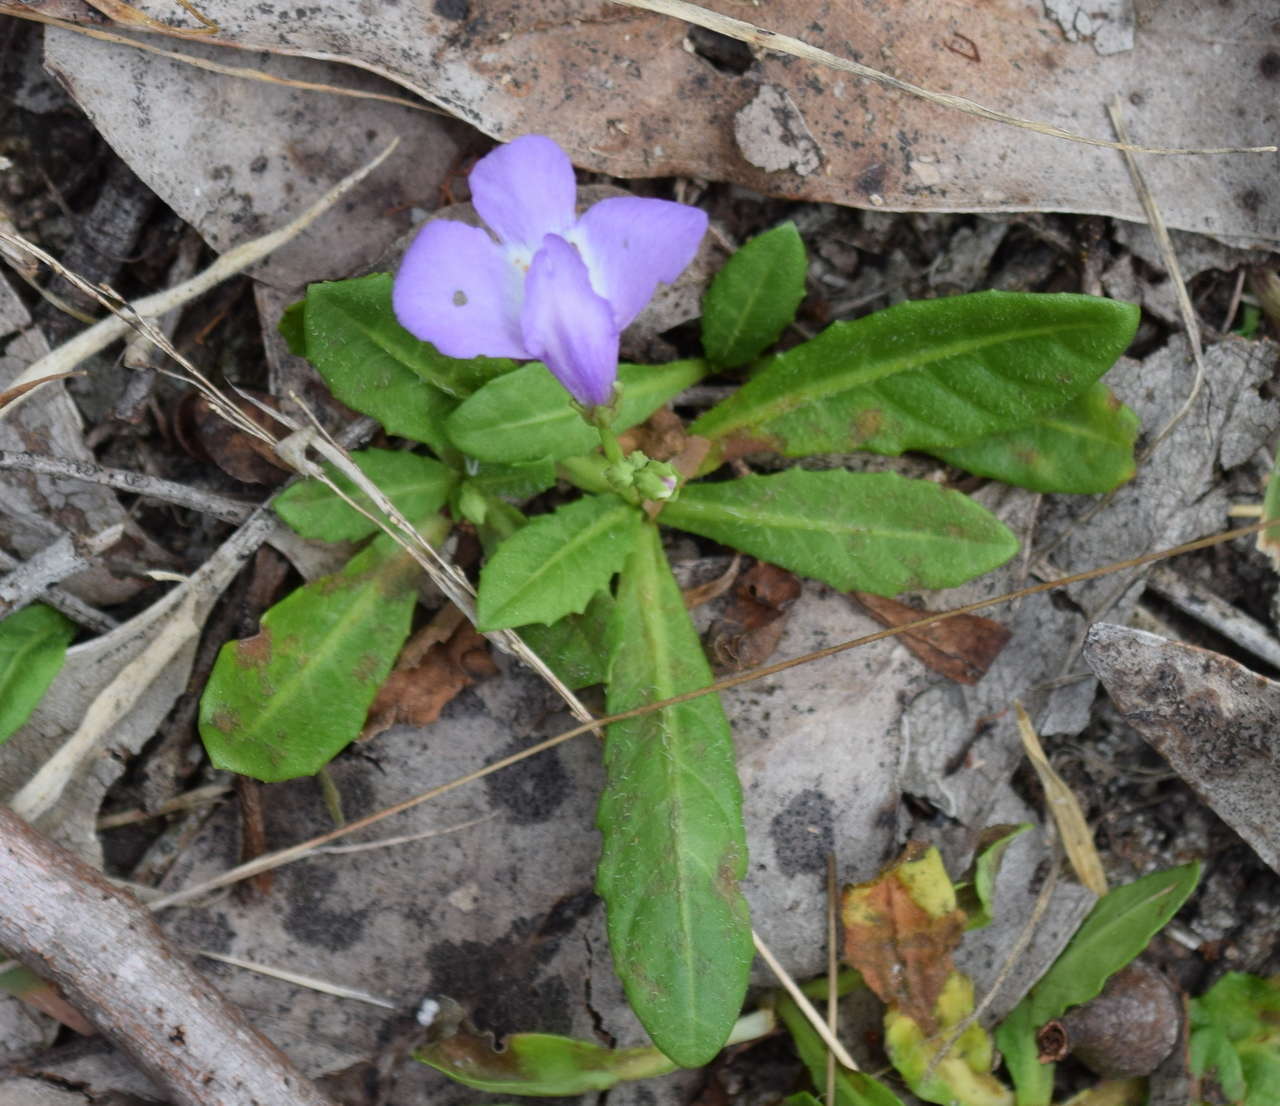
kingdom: Plantae
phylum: Tracheophyta
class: Magnoliopsida
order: Lamiales
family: Mazaceae
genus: Mazus
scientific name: Mazus pumilio
